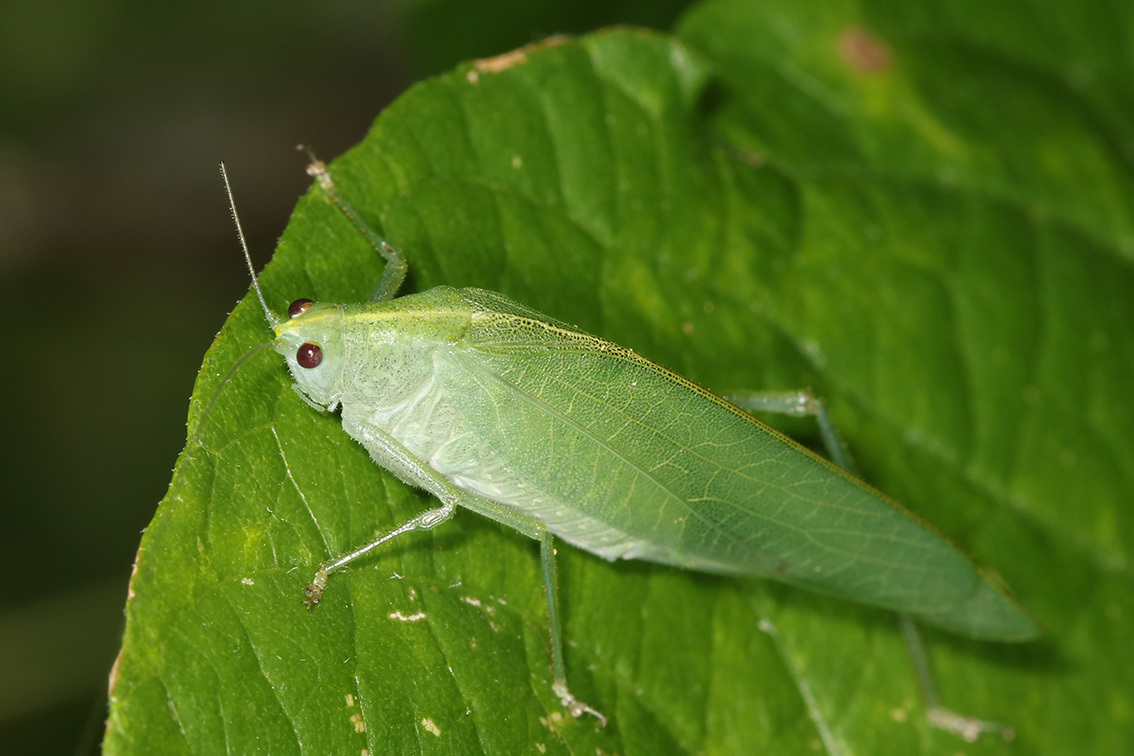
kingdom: Animalia
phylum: Arthropoda
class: Insecta
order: Orthoptera
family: Tettigoniidae
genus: Grammadera
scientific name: Grammadera clara
